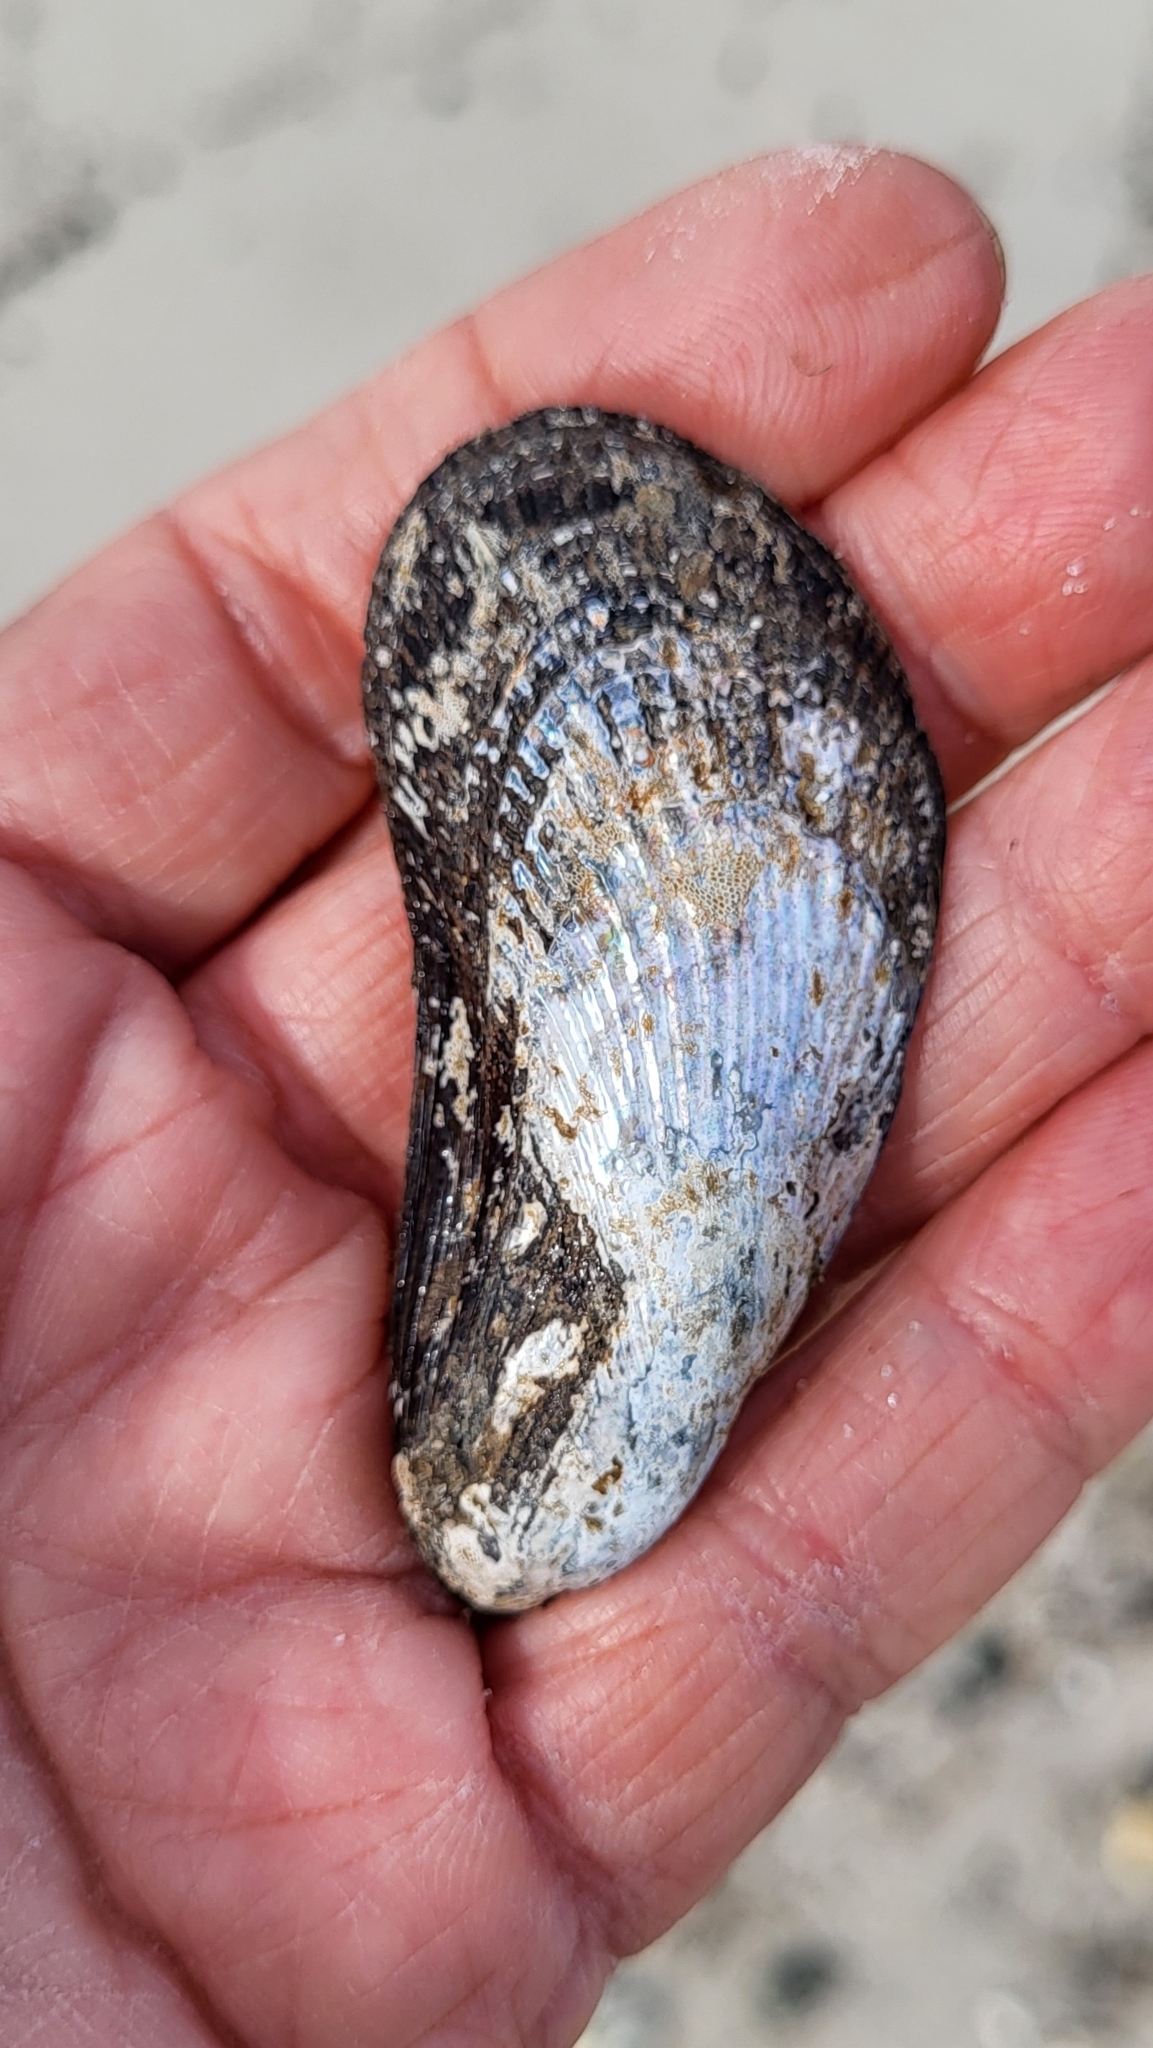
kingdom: Animalia
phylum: Mollusca
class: Bivalvia
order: Mytilida
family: Mytilidae
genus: Geukensia
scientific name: Geukensia demissa
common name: Ribbed mussel
